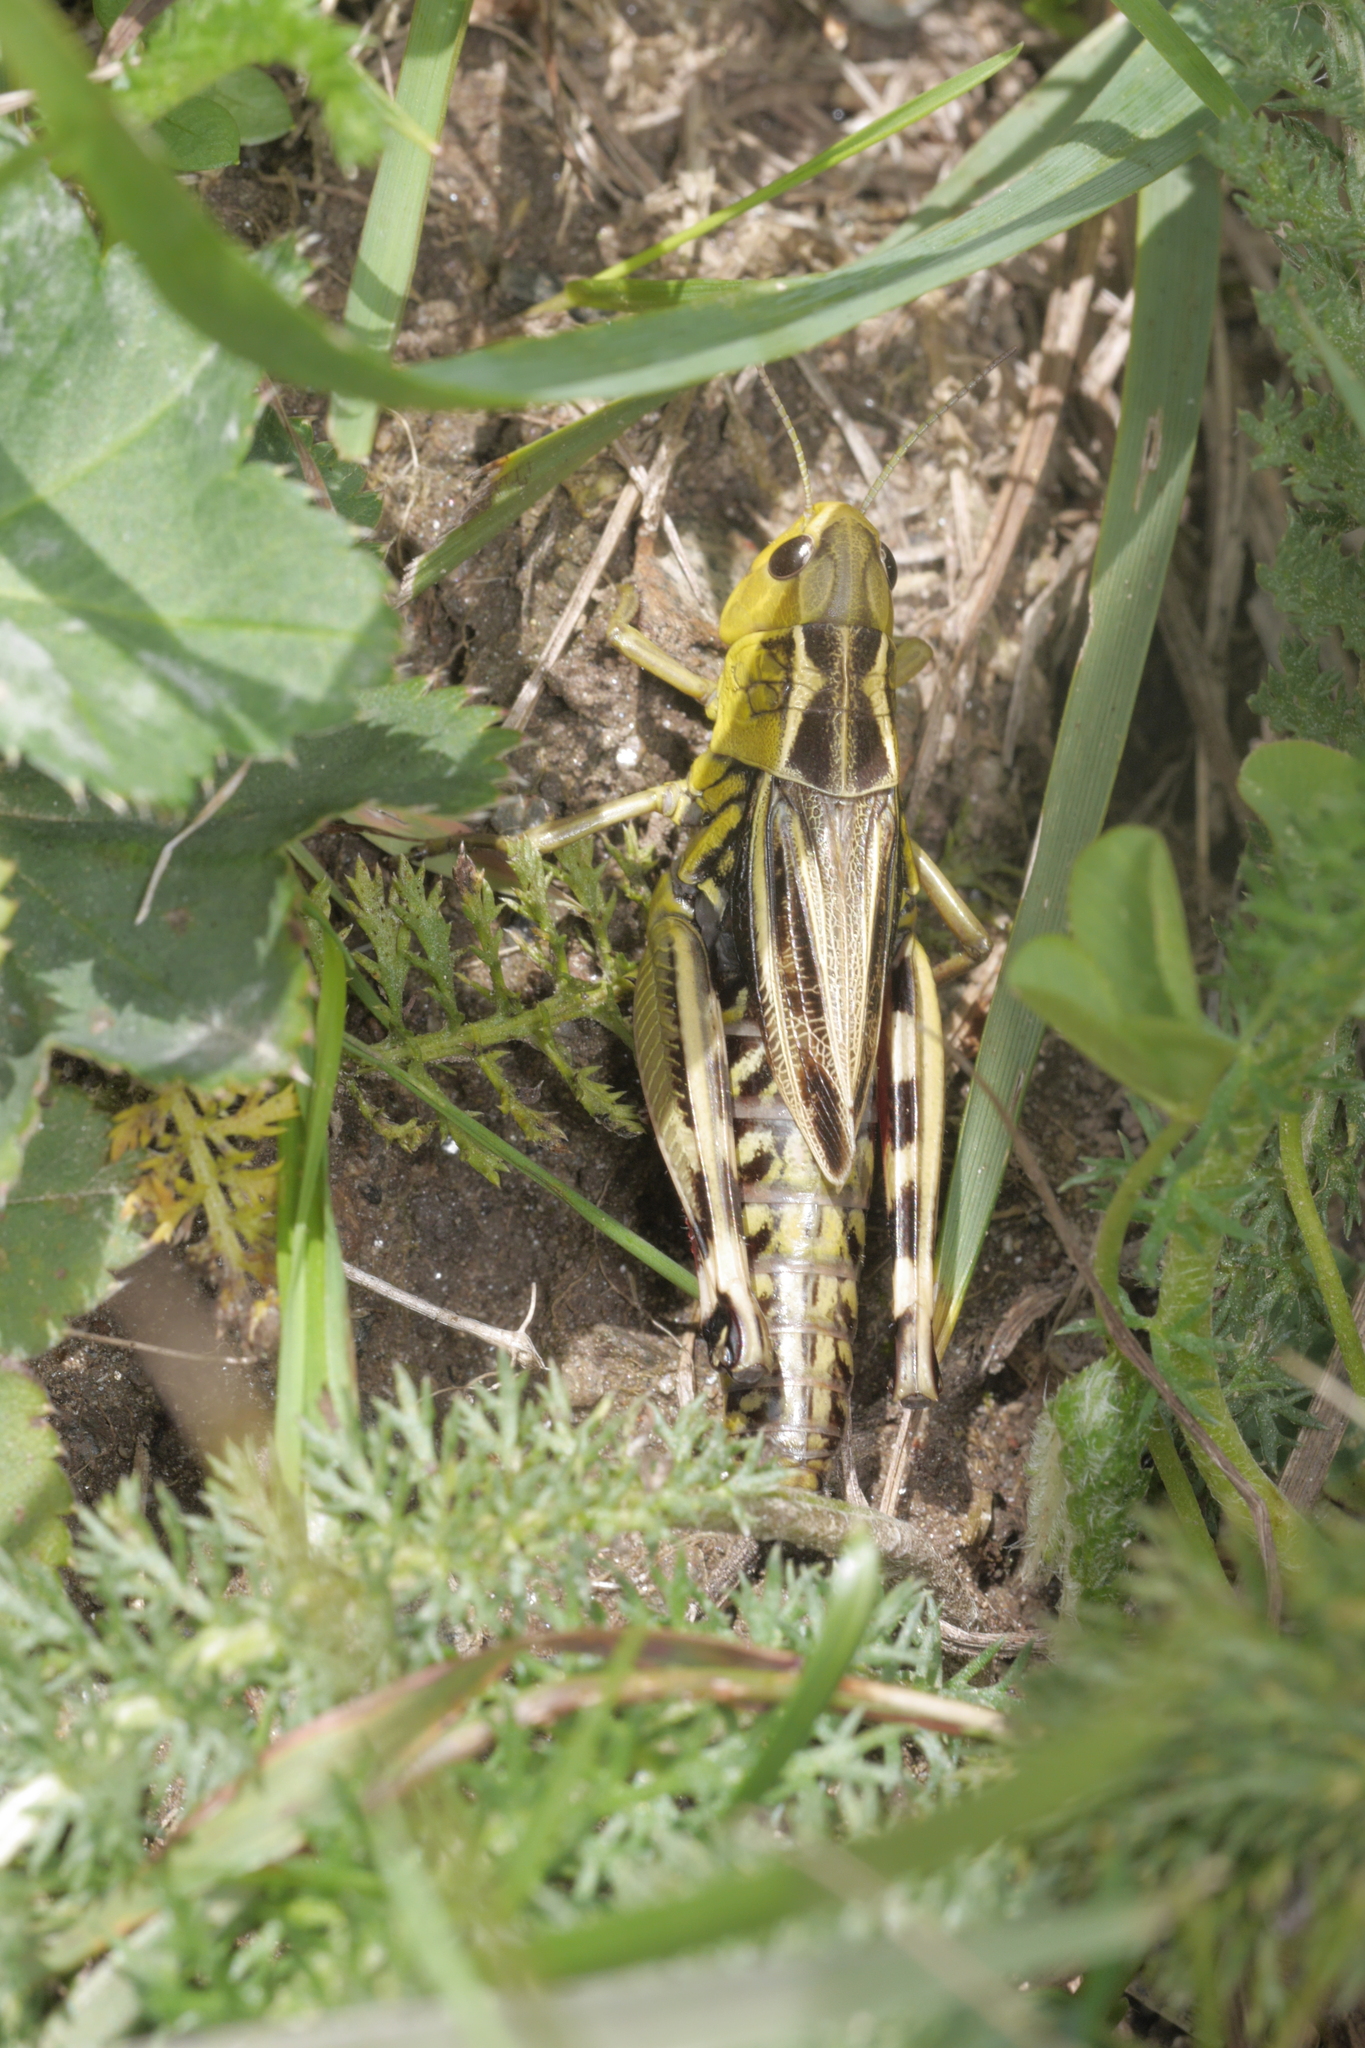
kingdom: Animalia
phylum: Arthropoda
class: Insecta
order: Orthoptera
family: Acrididae
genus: Arcyptera
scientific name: Arcyptera fusca
